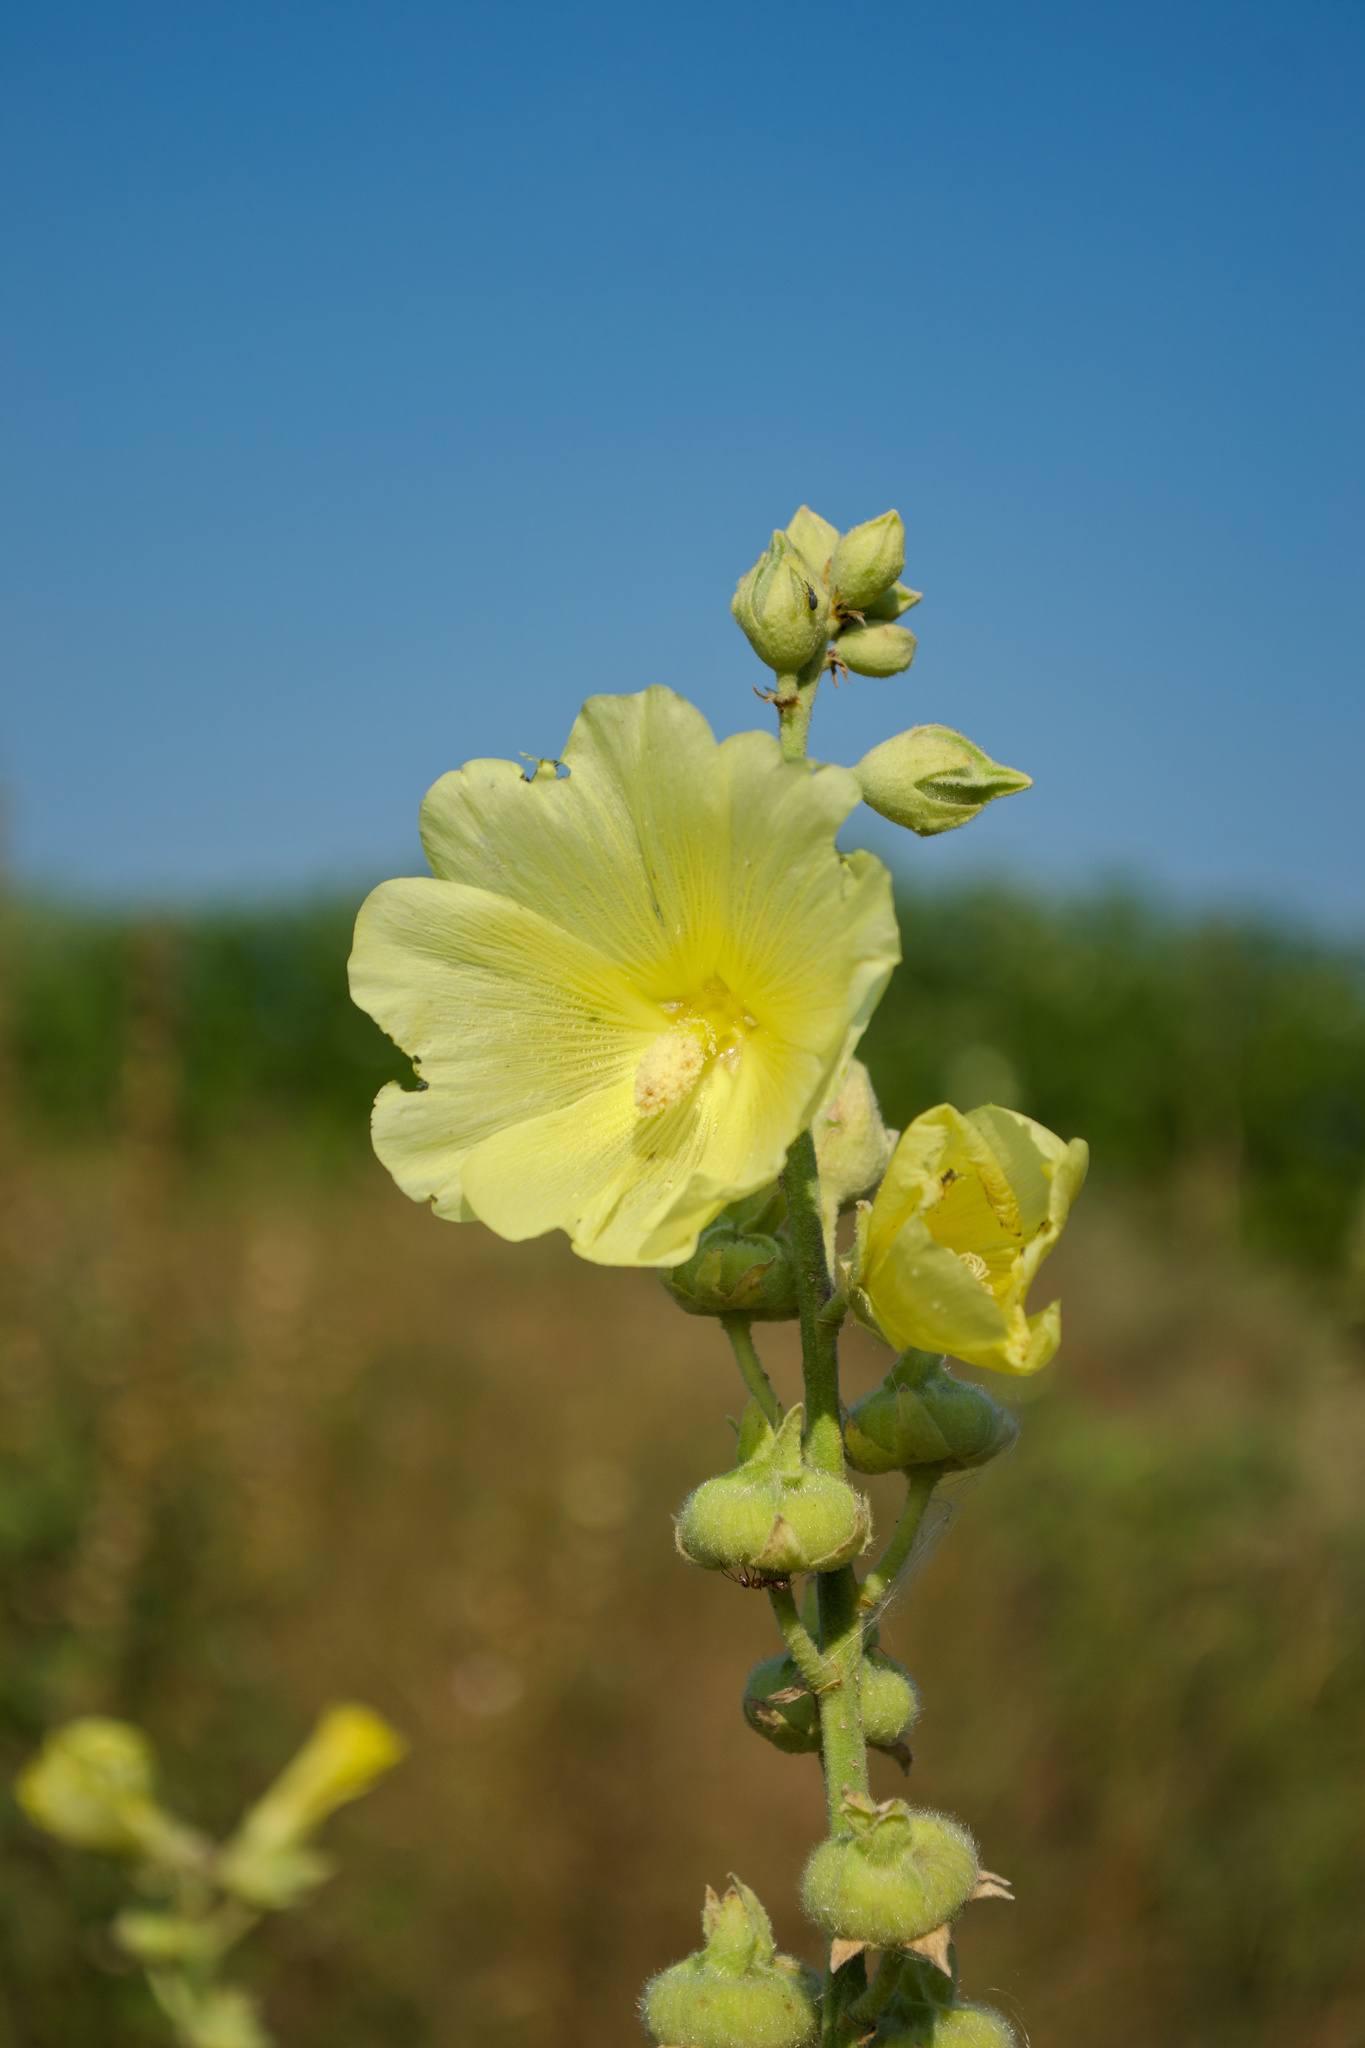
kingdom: Plantae
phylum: Tracheophyta
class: Magnoliopsida
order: Malvales
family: Malvaceae
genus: Alcea
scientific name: Alcea rosea
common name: Hollyhock
